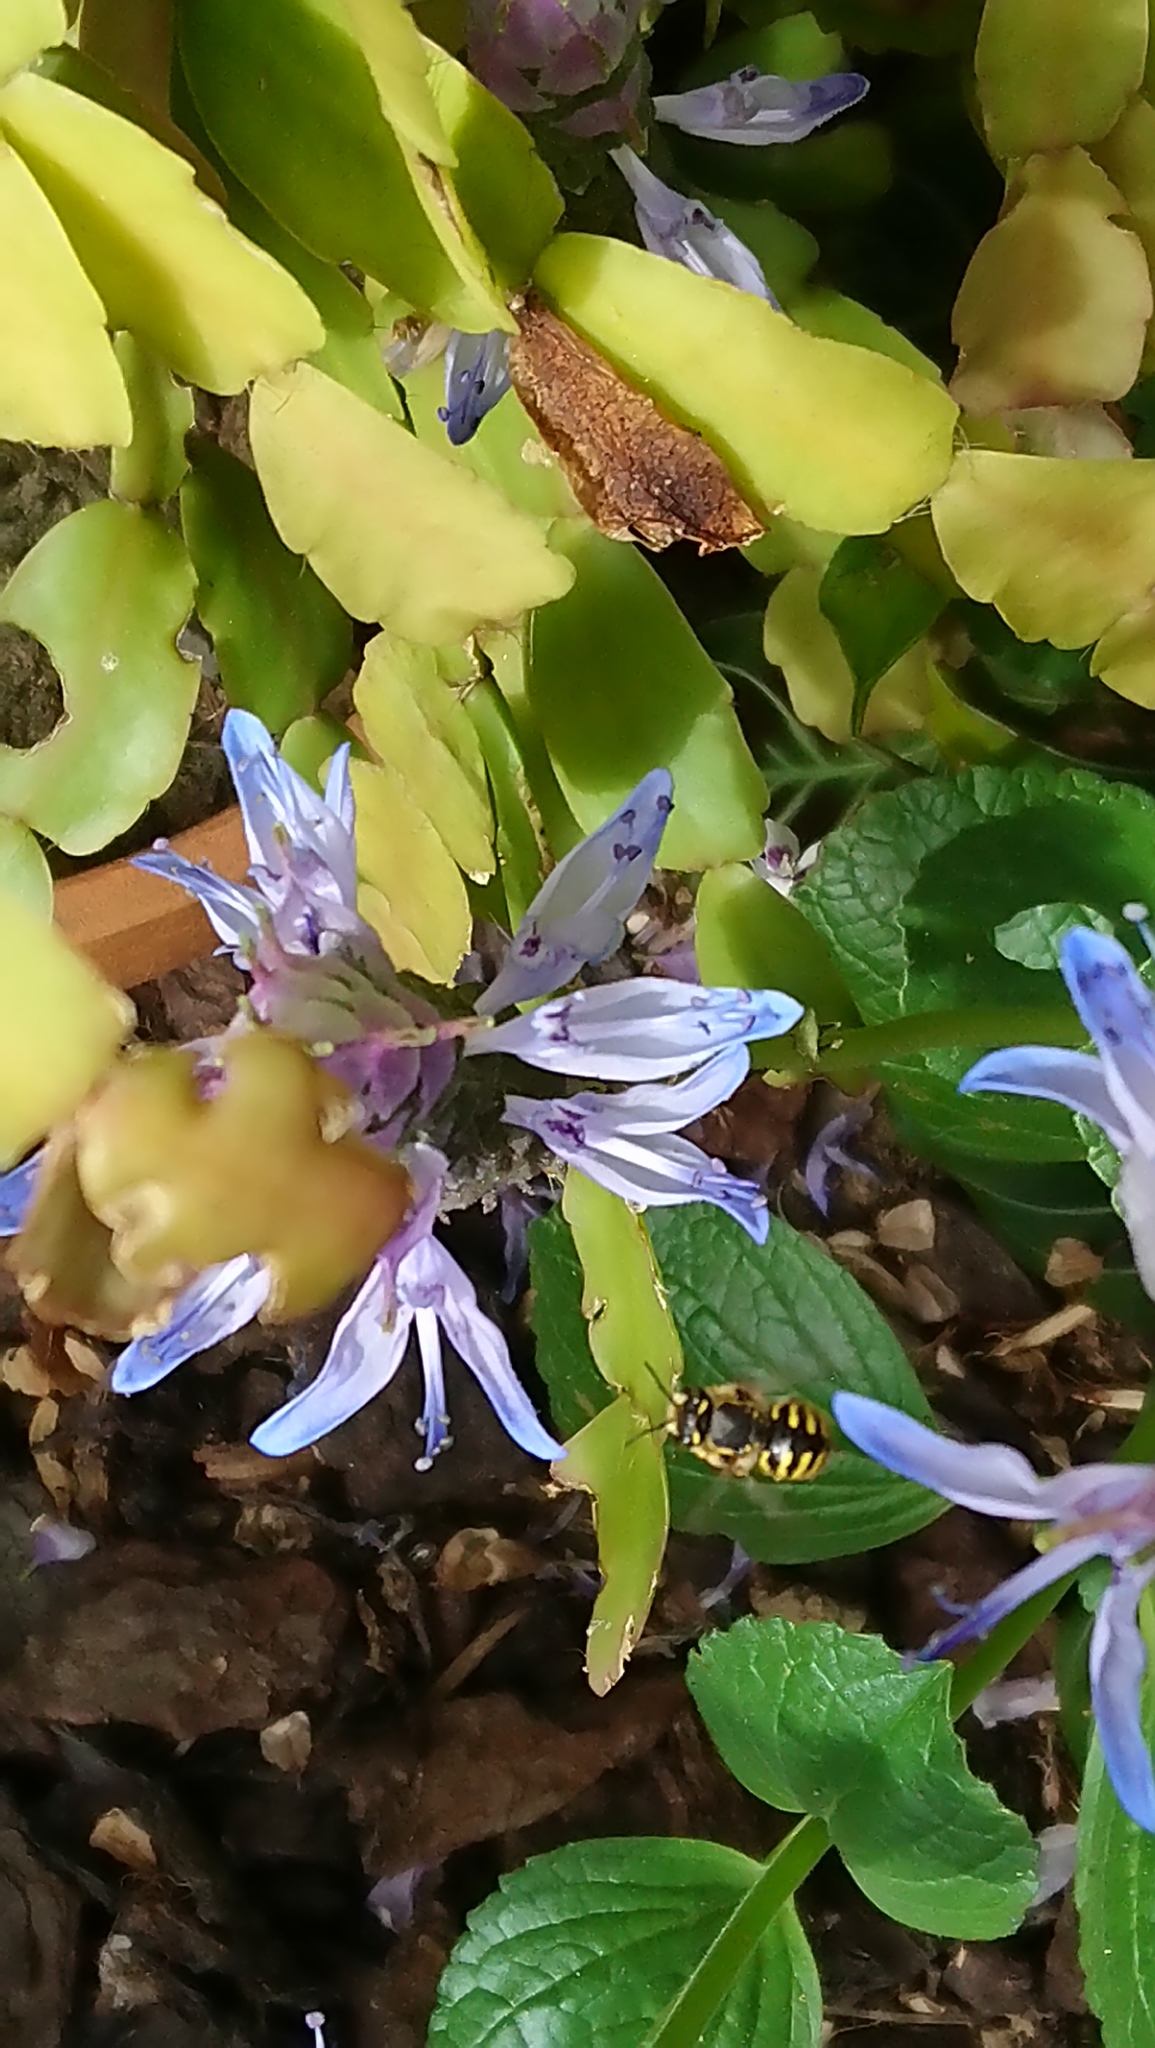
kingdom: Animalia
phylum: Arthropoda
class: Insecta
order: Hymenoptera
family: Megachilidae
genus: Anthidium
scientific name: Anthidium manicatum
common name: Wool carder bee
